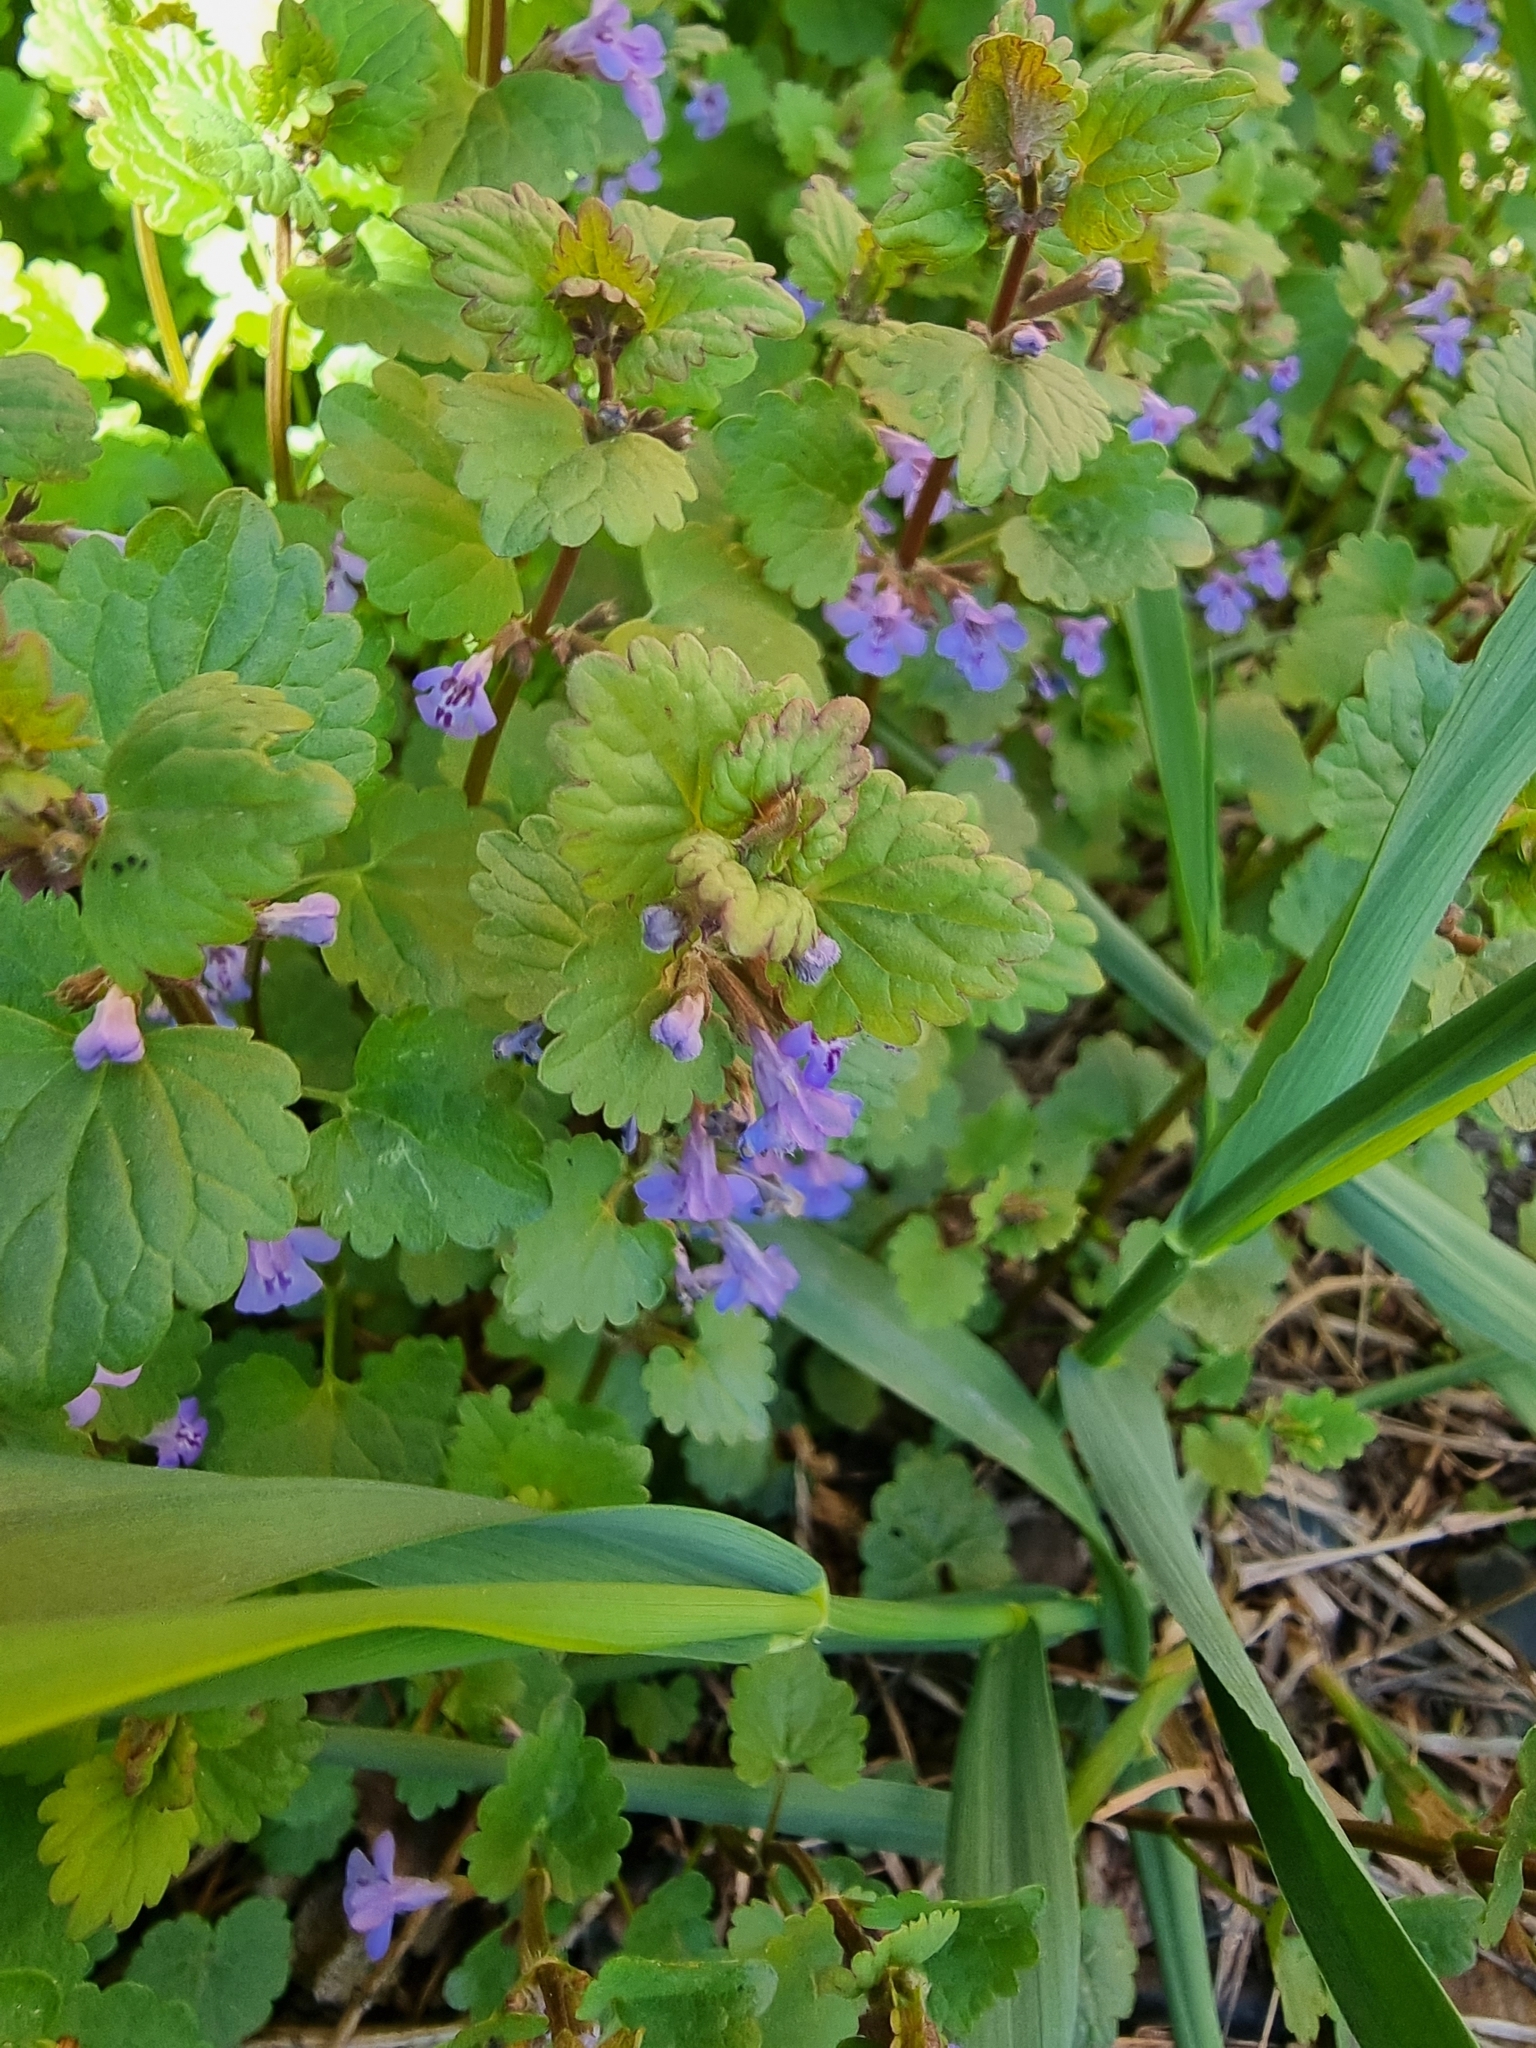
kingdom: Plantae
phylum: Tracheophyta
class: Magnoliopsida
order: Lamiales
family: Lamiaceae
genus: Glechoma
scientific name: Glechoma hederacea
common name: Ground ivy
